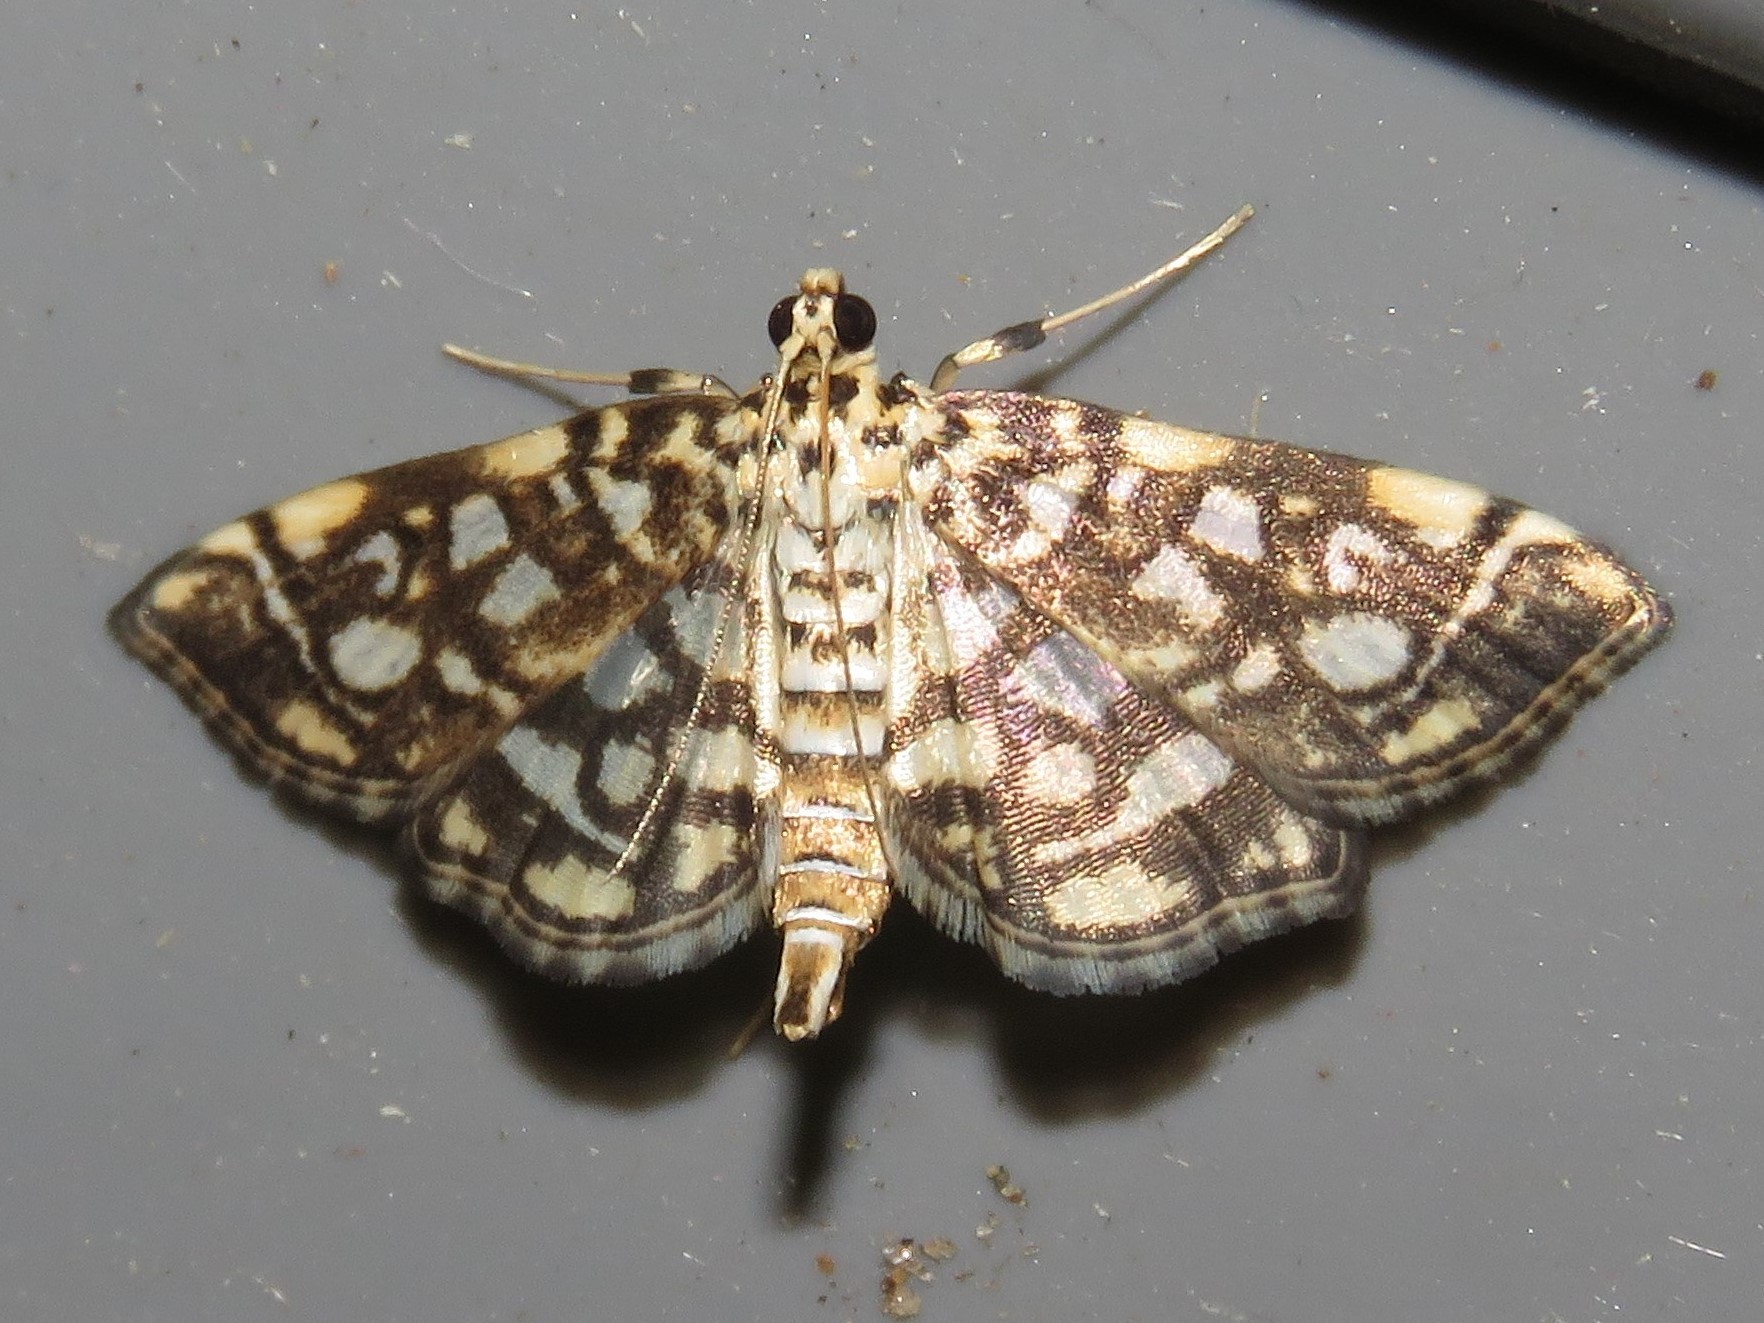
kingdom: Animalia
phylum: Arthropoda
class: Insecta
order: Lepidoptera
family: Crambidae
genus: Lygropia
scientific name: Lygropia rivulalis
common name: Bog lygropia moth
